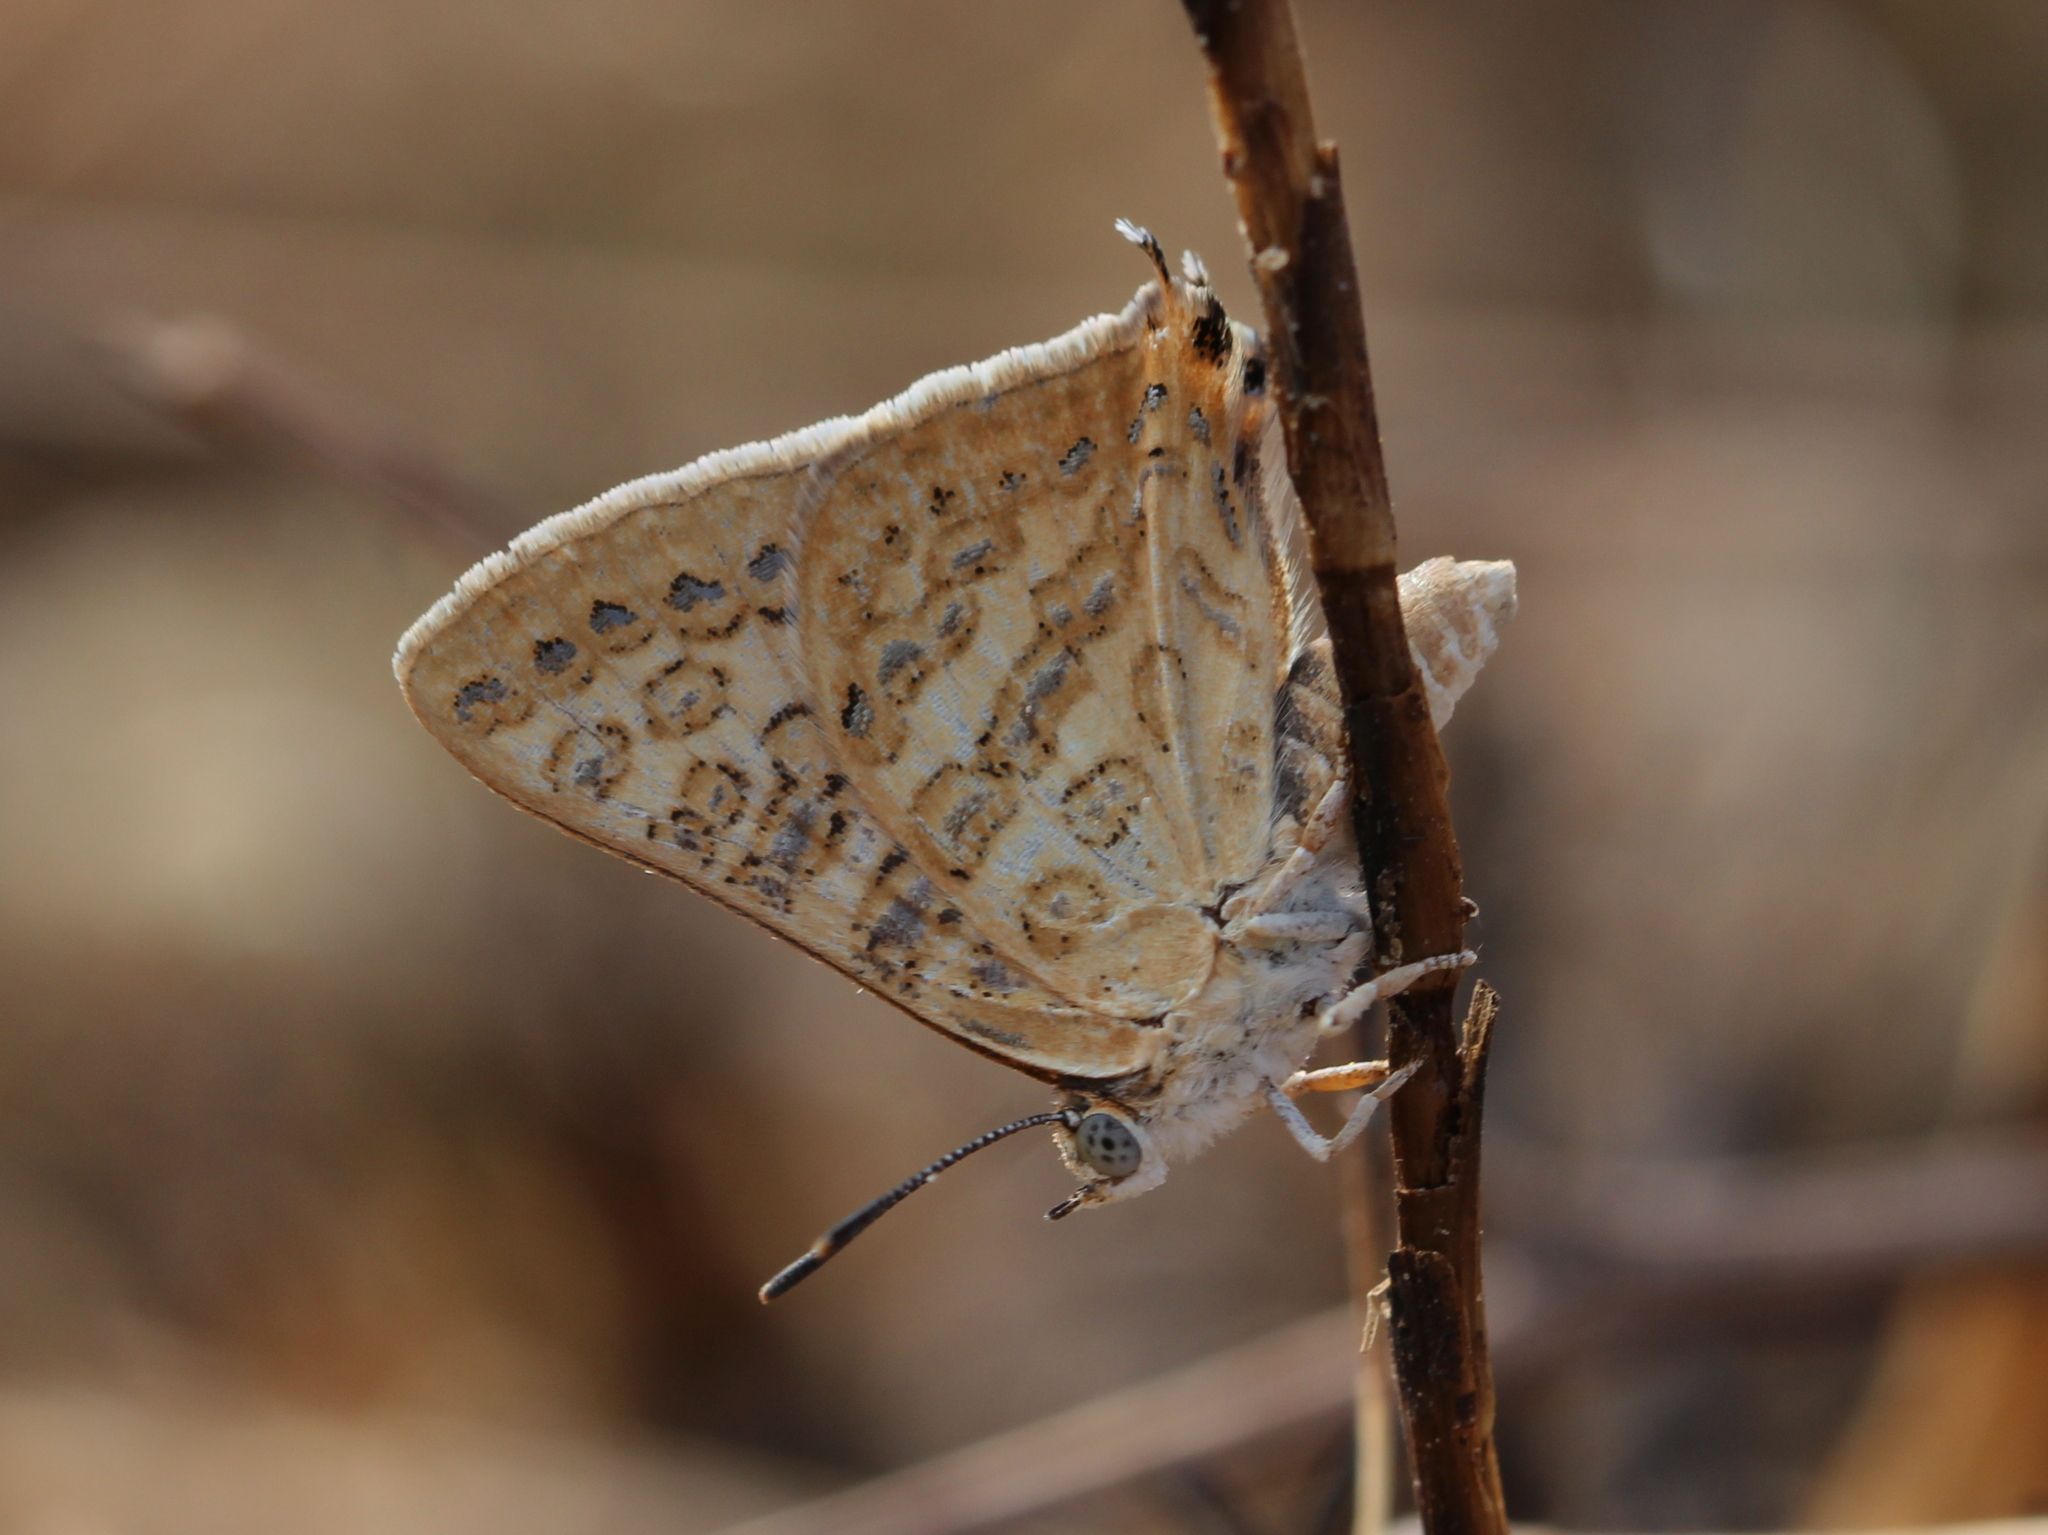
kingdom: Animalia
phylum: Arthropoda
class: Insecta
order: Lepidoptera
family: Lycaenidae
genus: Aphnaeus
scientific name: Aphnaeus lilacinus
